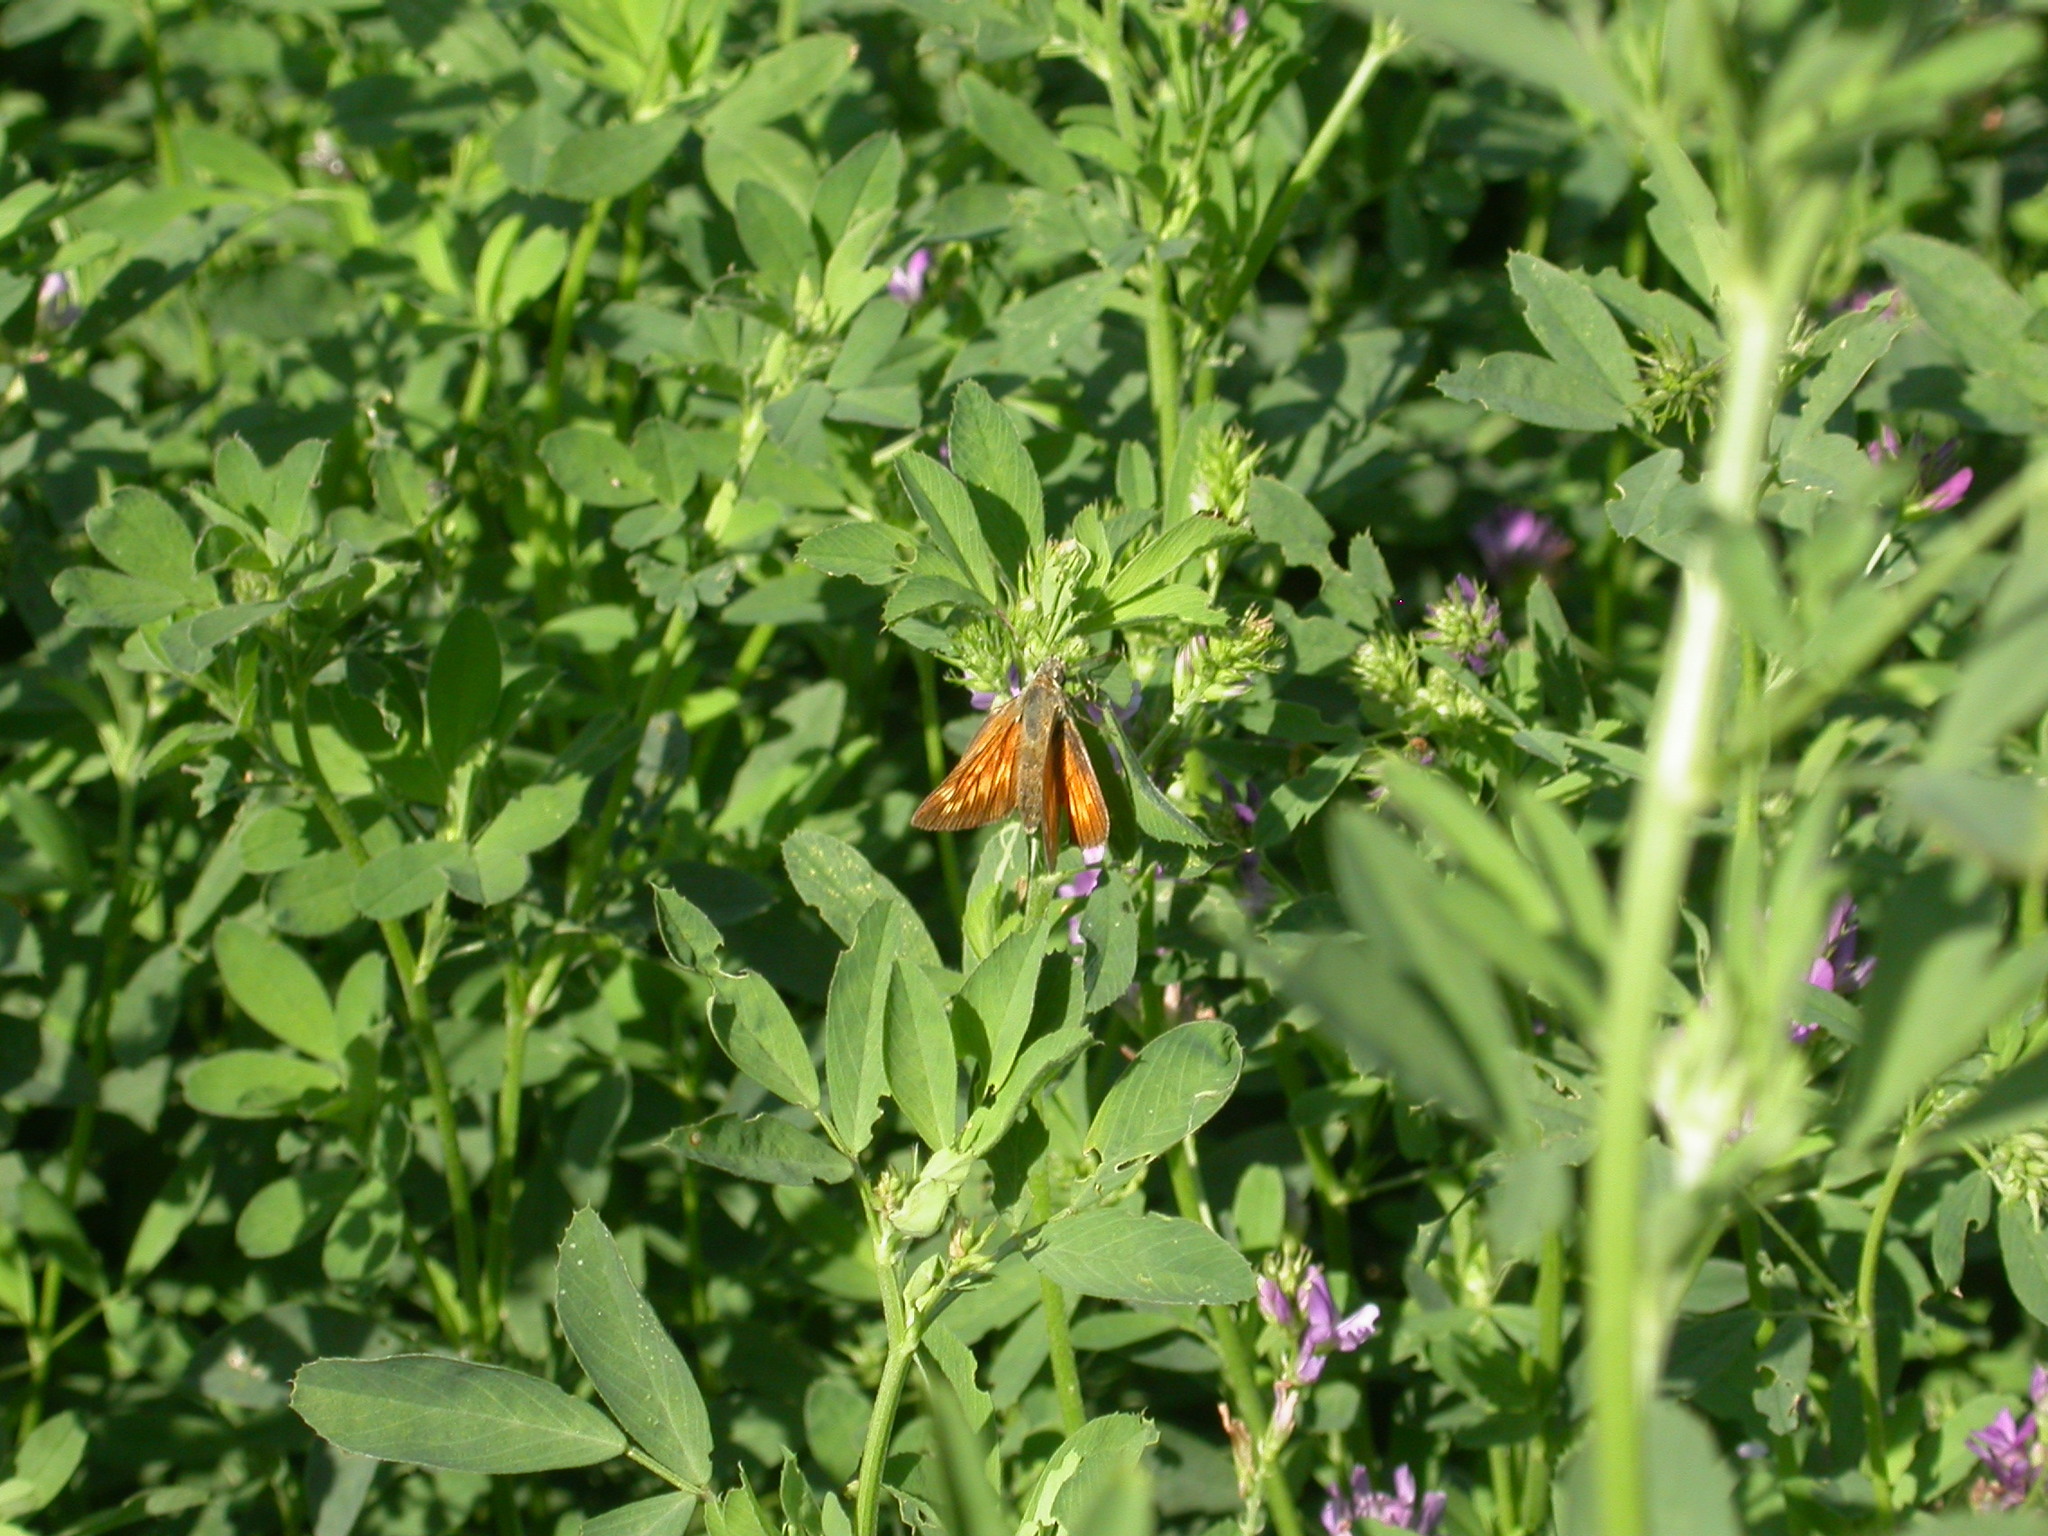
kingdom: Animalia
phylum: Arthropoda
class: Insecta
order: Lepidoptera
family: Hesperiidae
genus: Ochlodes
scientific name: Ochlodes venata
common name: Large skipper
